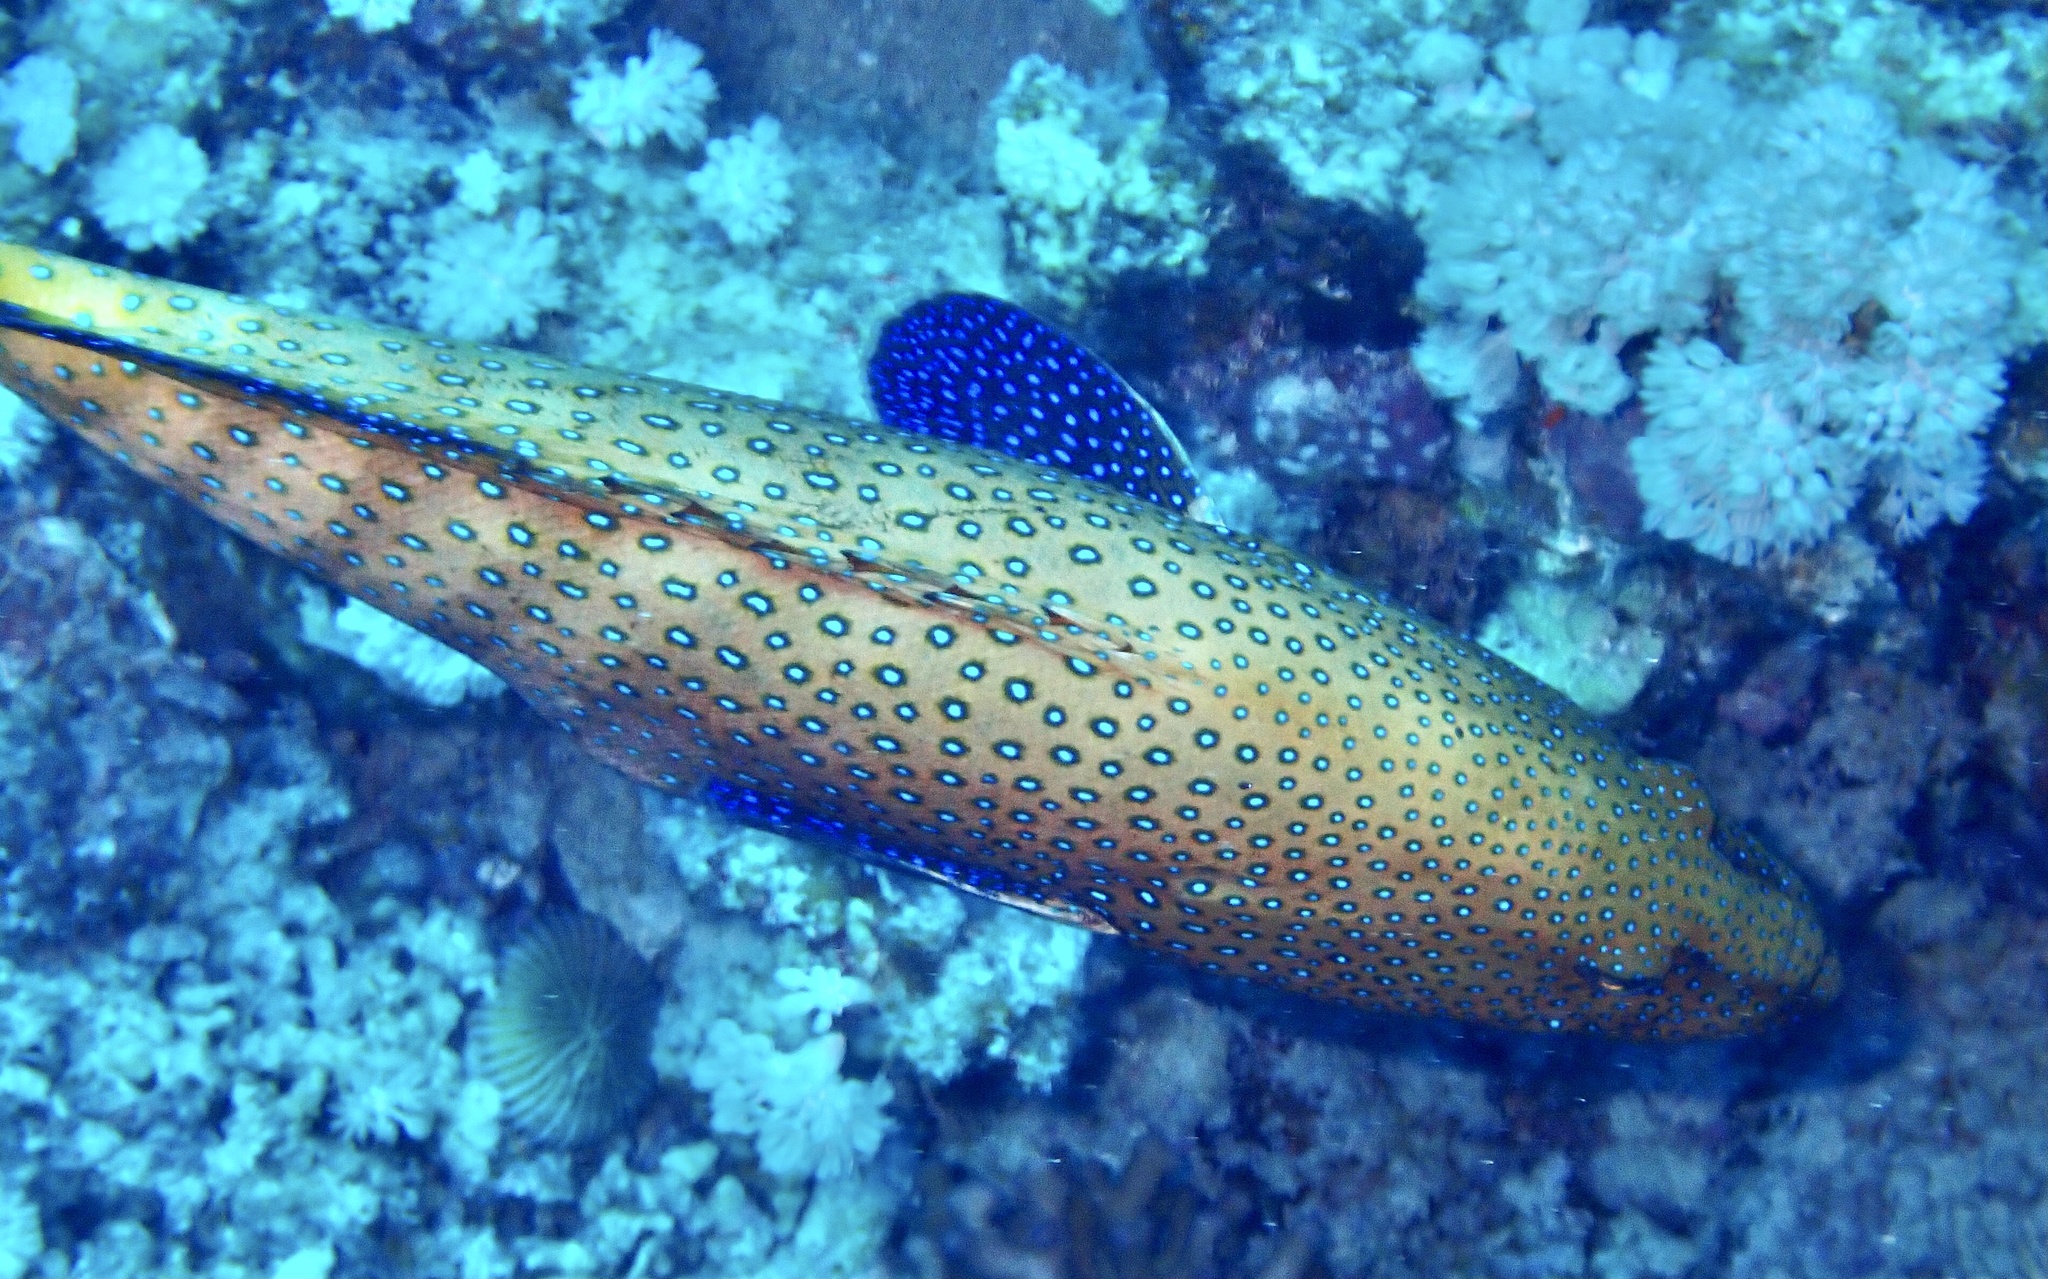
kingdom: Animalia
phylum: Chordata
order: Perciformes
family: Serranidae
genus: Cephalopholis
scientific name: Cephalopholis argus
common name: Peacock grouper
